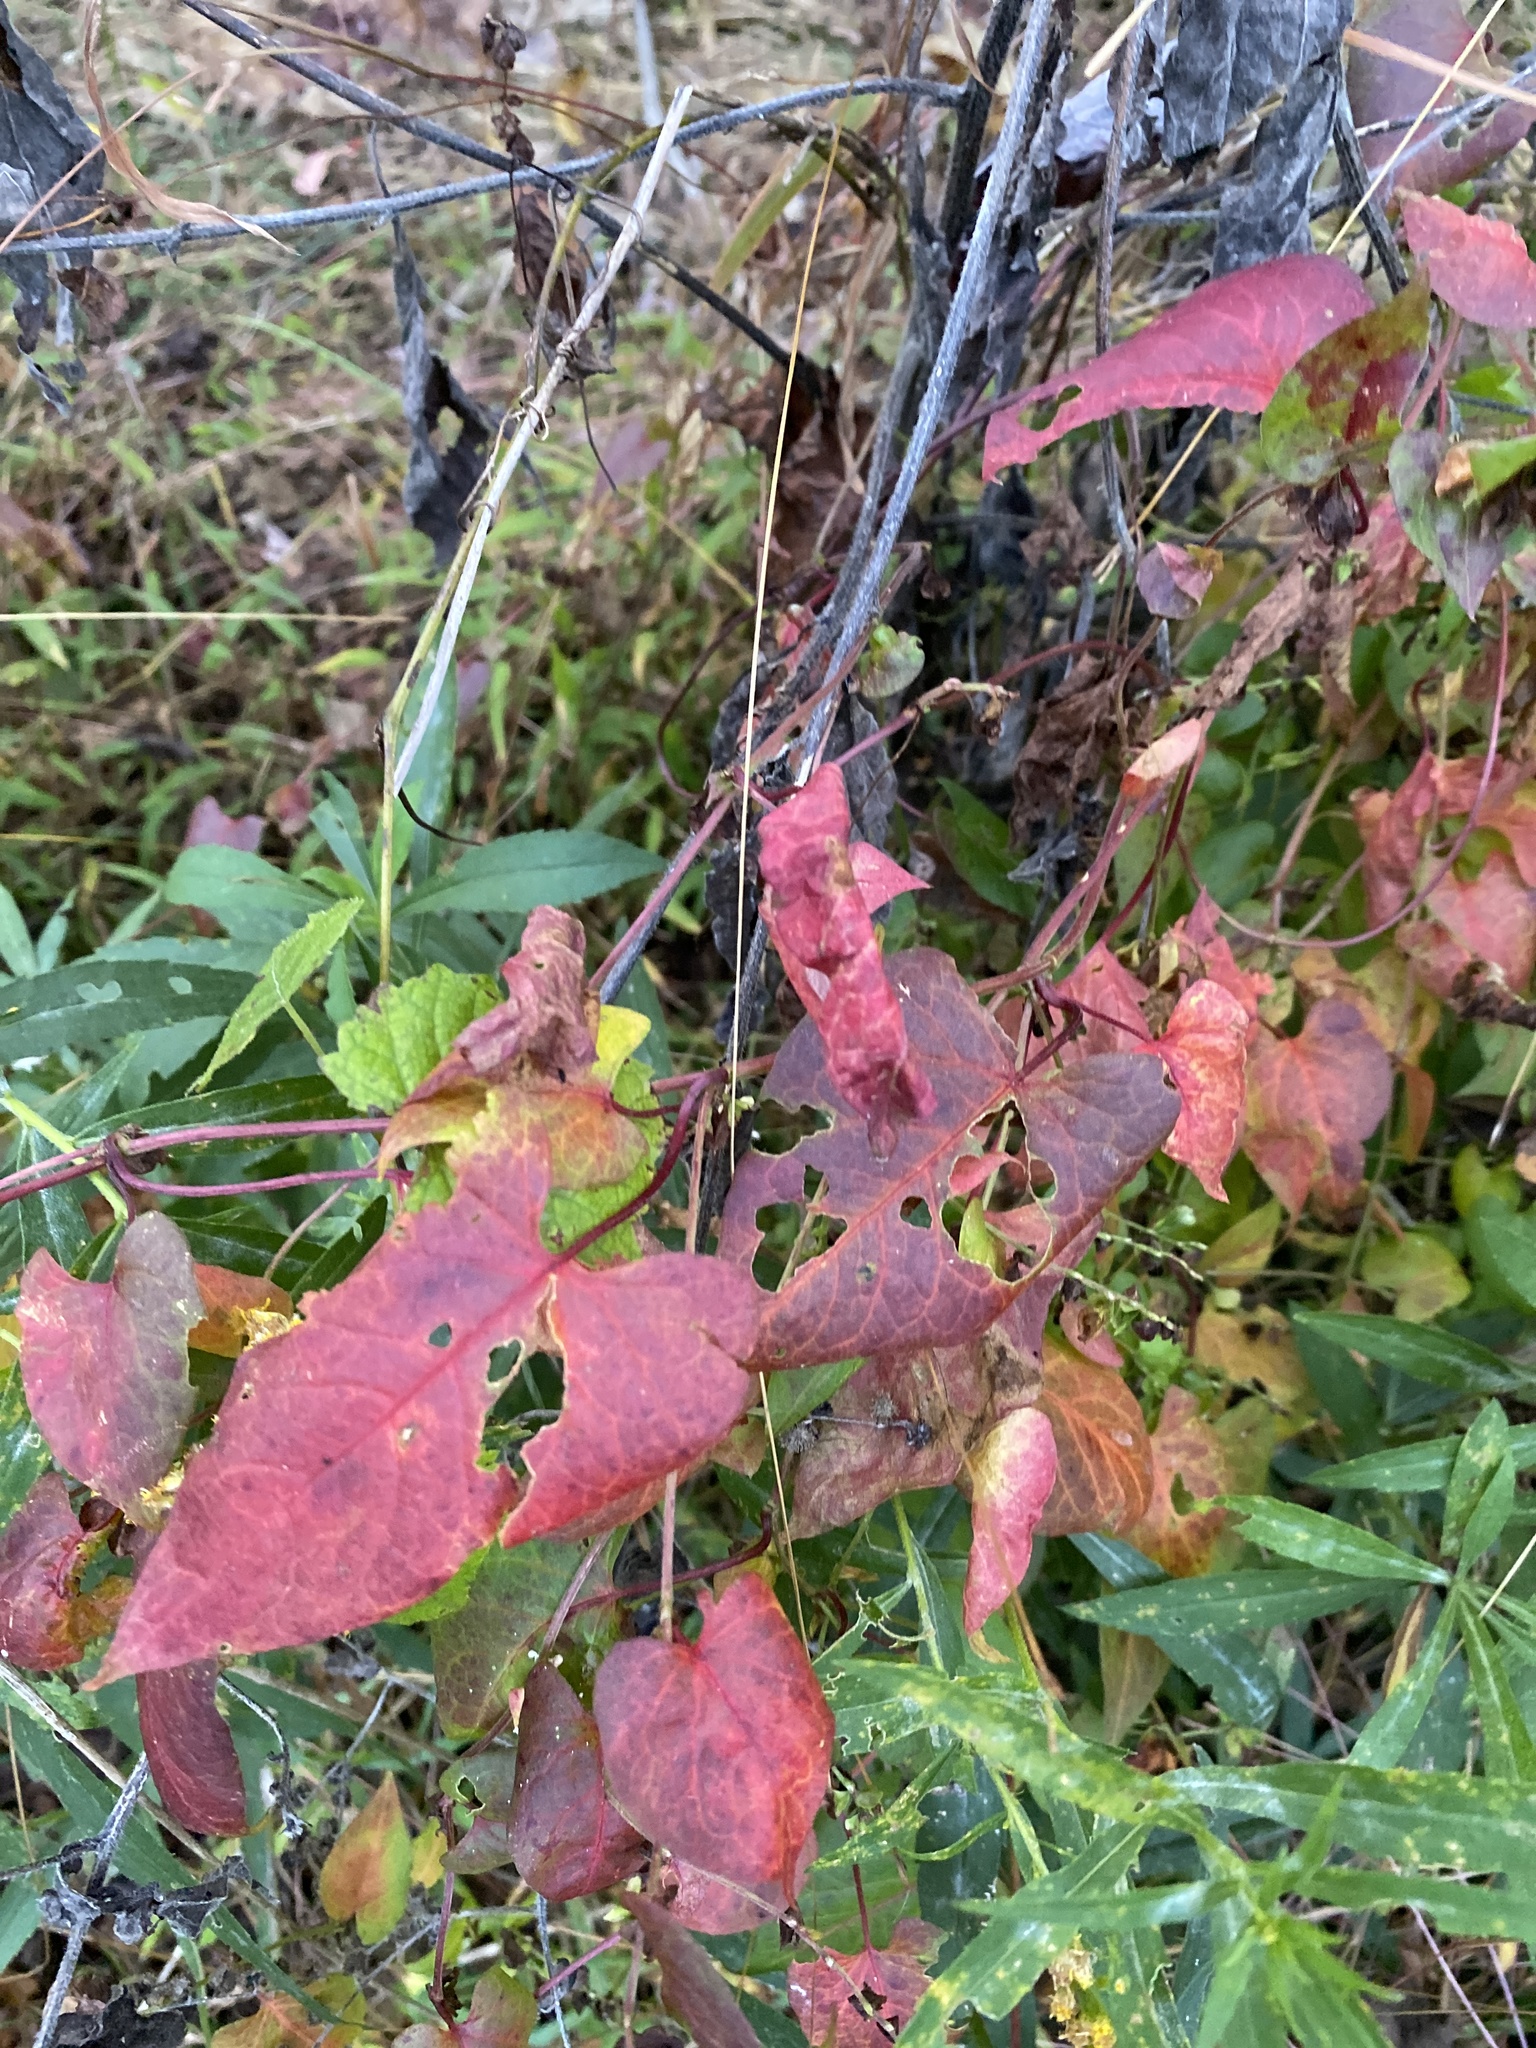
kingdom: Plantae
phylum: Tracheophyta
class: Magnoliopsida
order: Caryophyllales
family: Polygonaceae
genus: Fallopia
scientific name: Fallopia scandens
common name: Climbing false buckwheat
